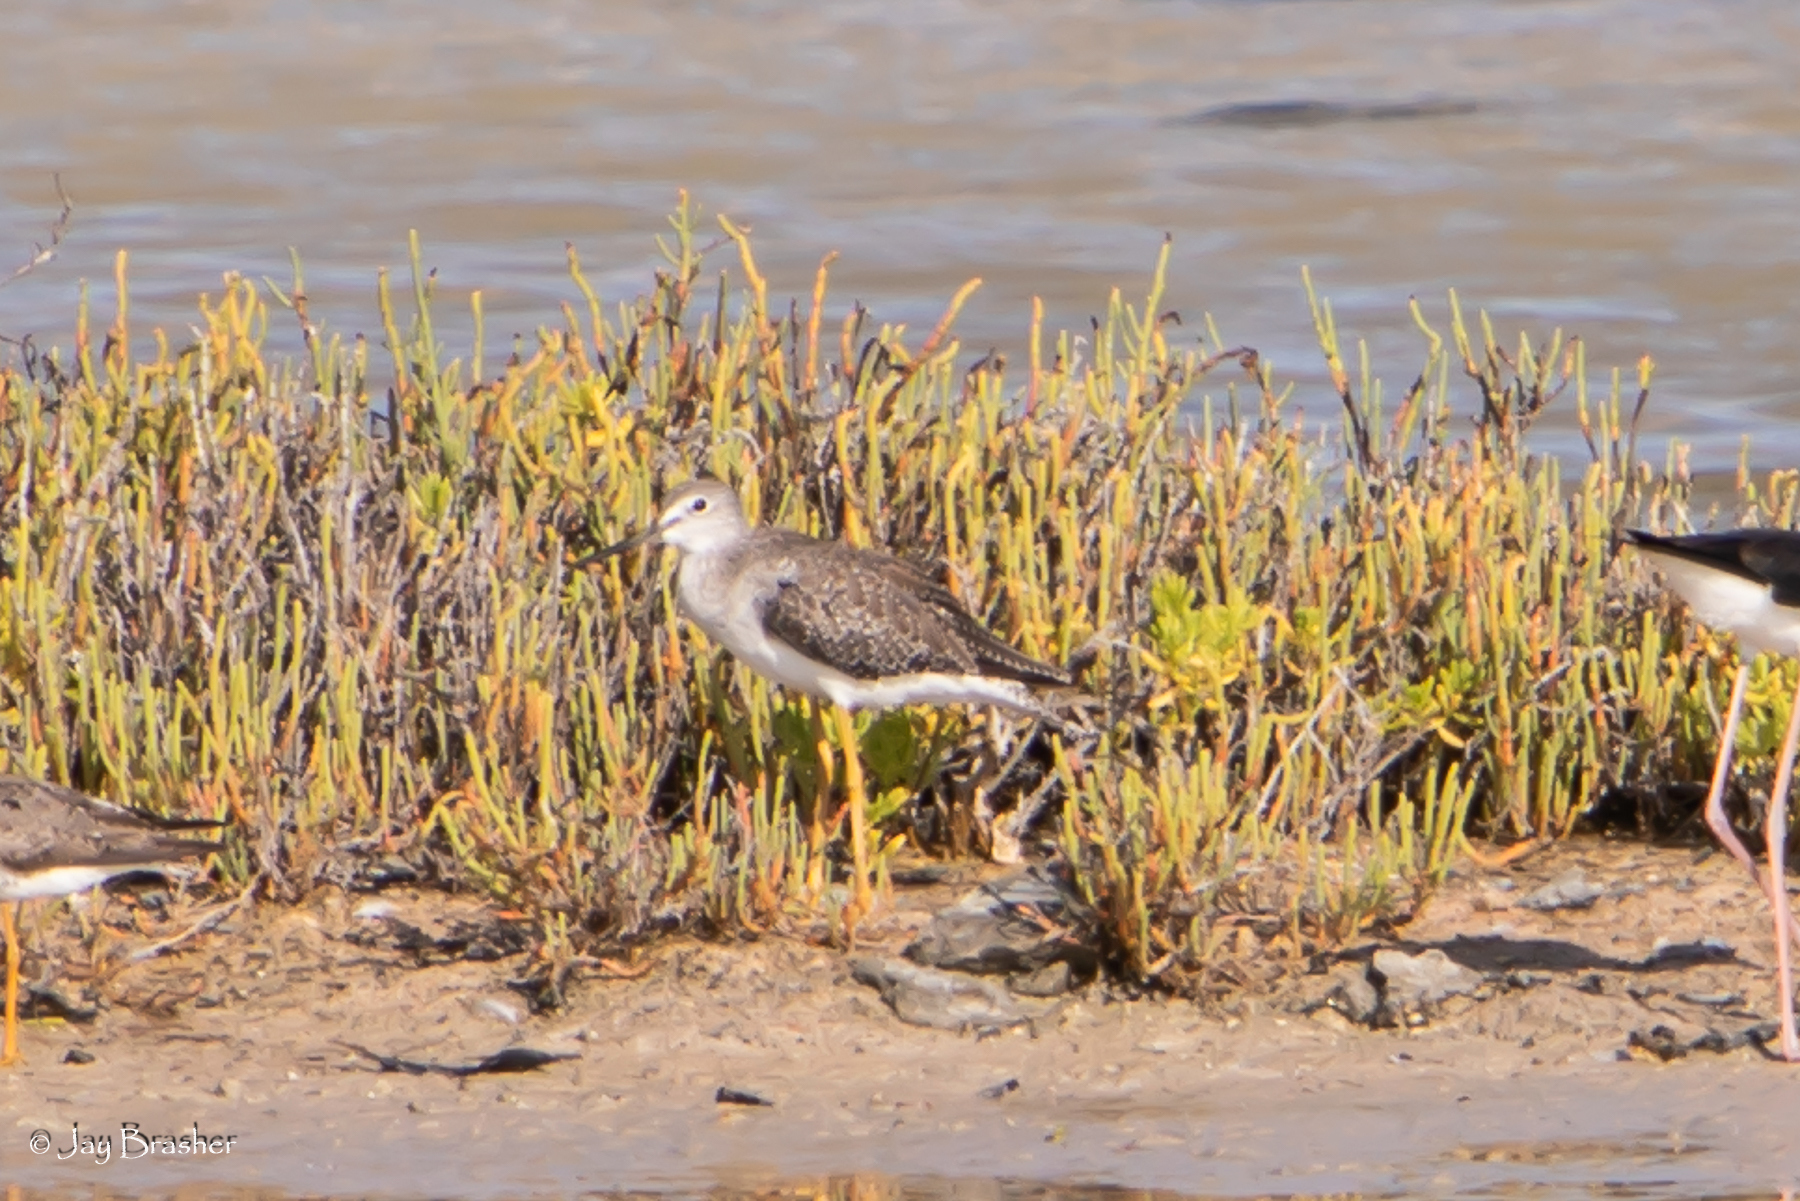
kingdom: Animalia
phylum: Chordata
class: Aves
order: Charadriiformes
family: Scolopacidae
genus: Tringa
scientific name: Tringa melanoleuca
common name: Greater yellowlegs
